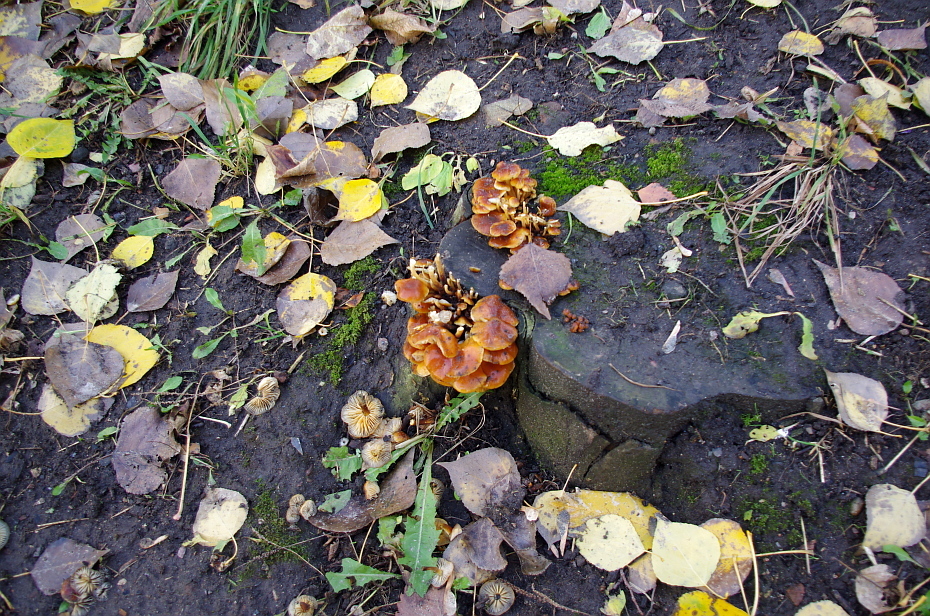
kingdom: Fungi
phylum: Basidiomycota
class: Agaricomycetes
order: Agaricales
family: Physalacriaceae
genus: Flammulina
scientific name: Flammulina
